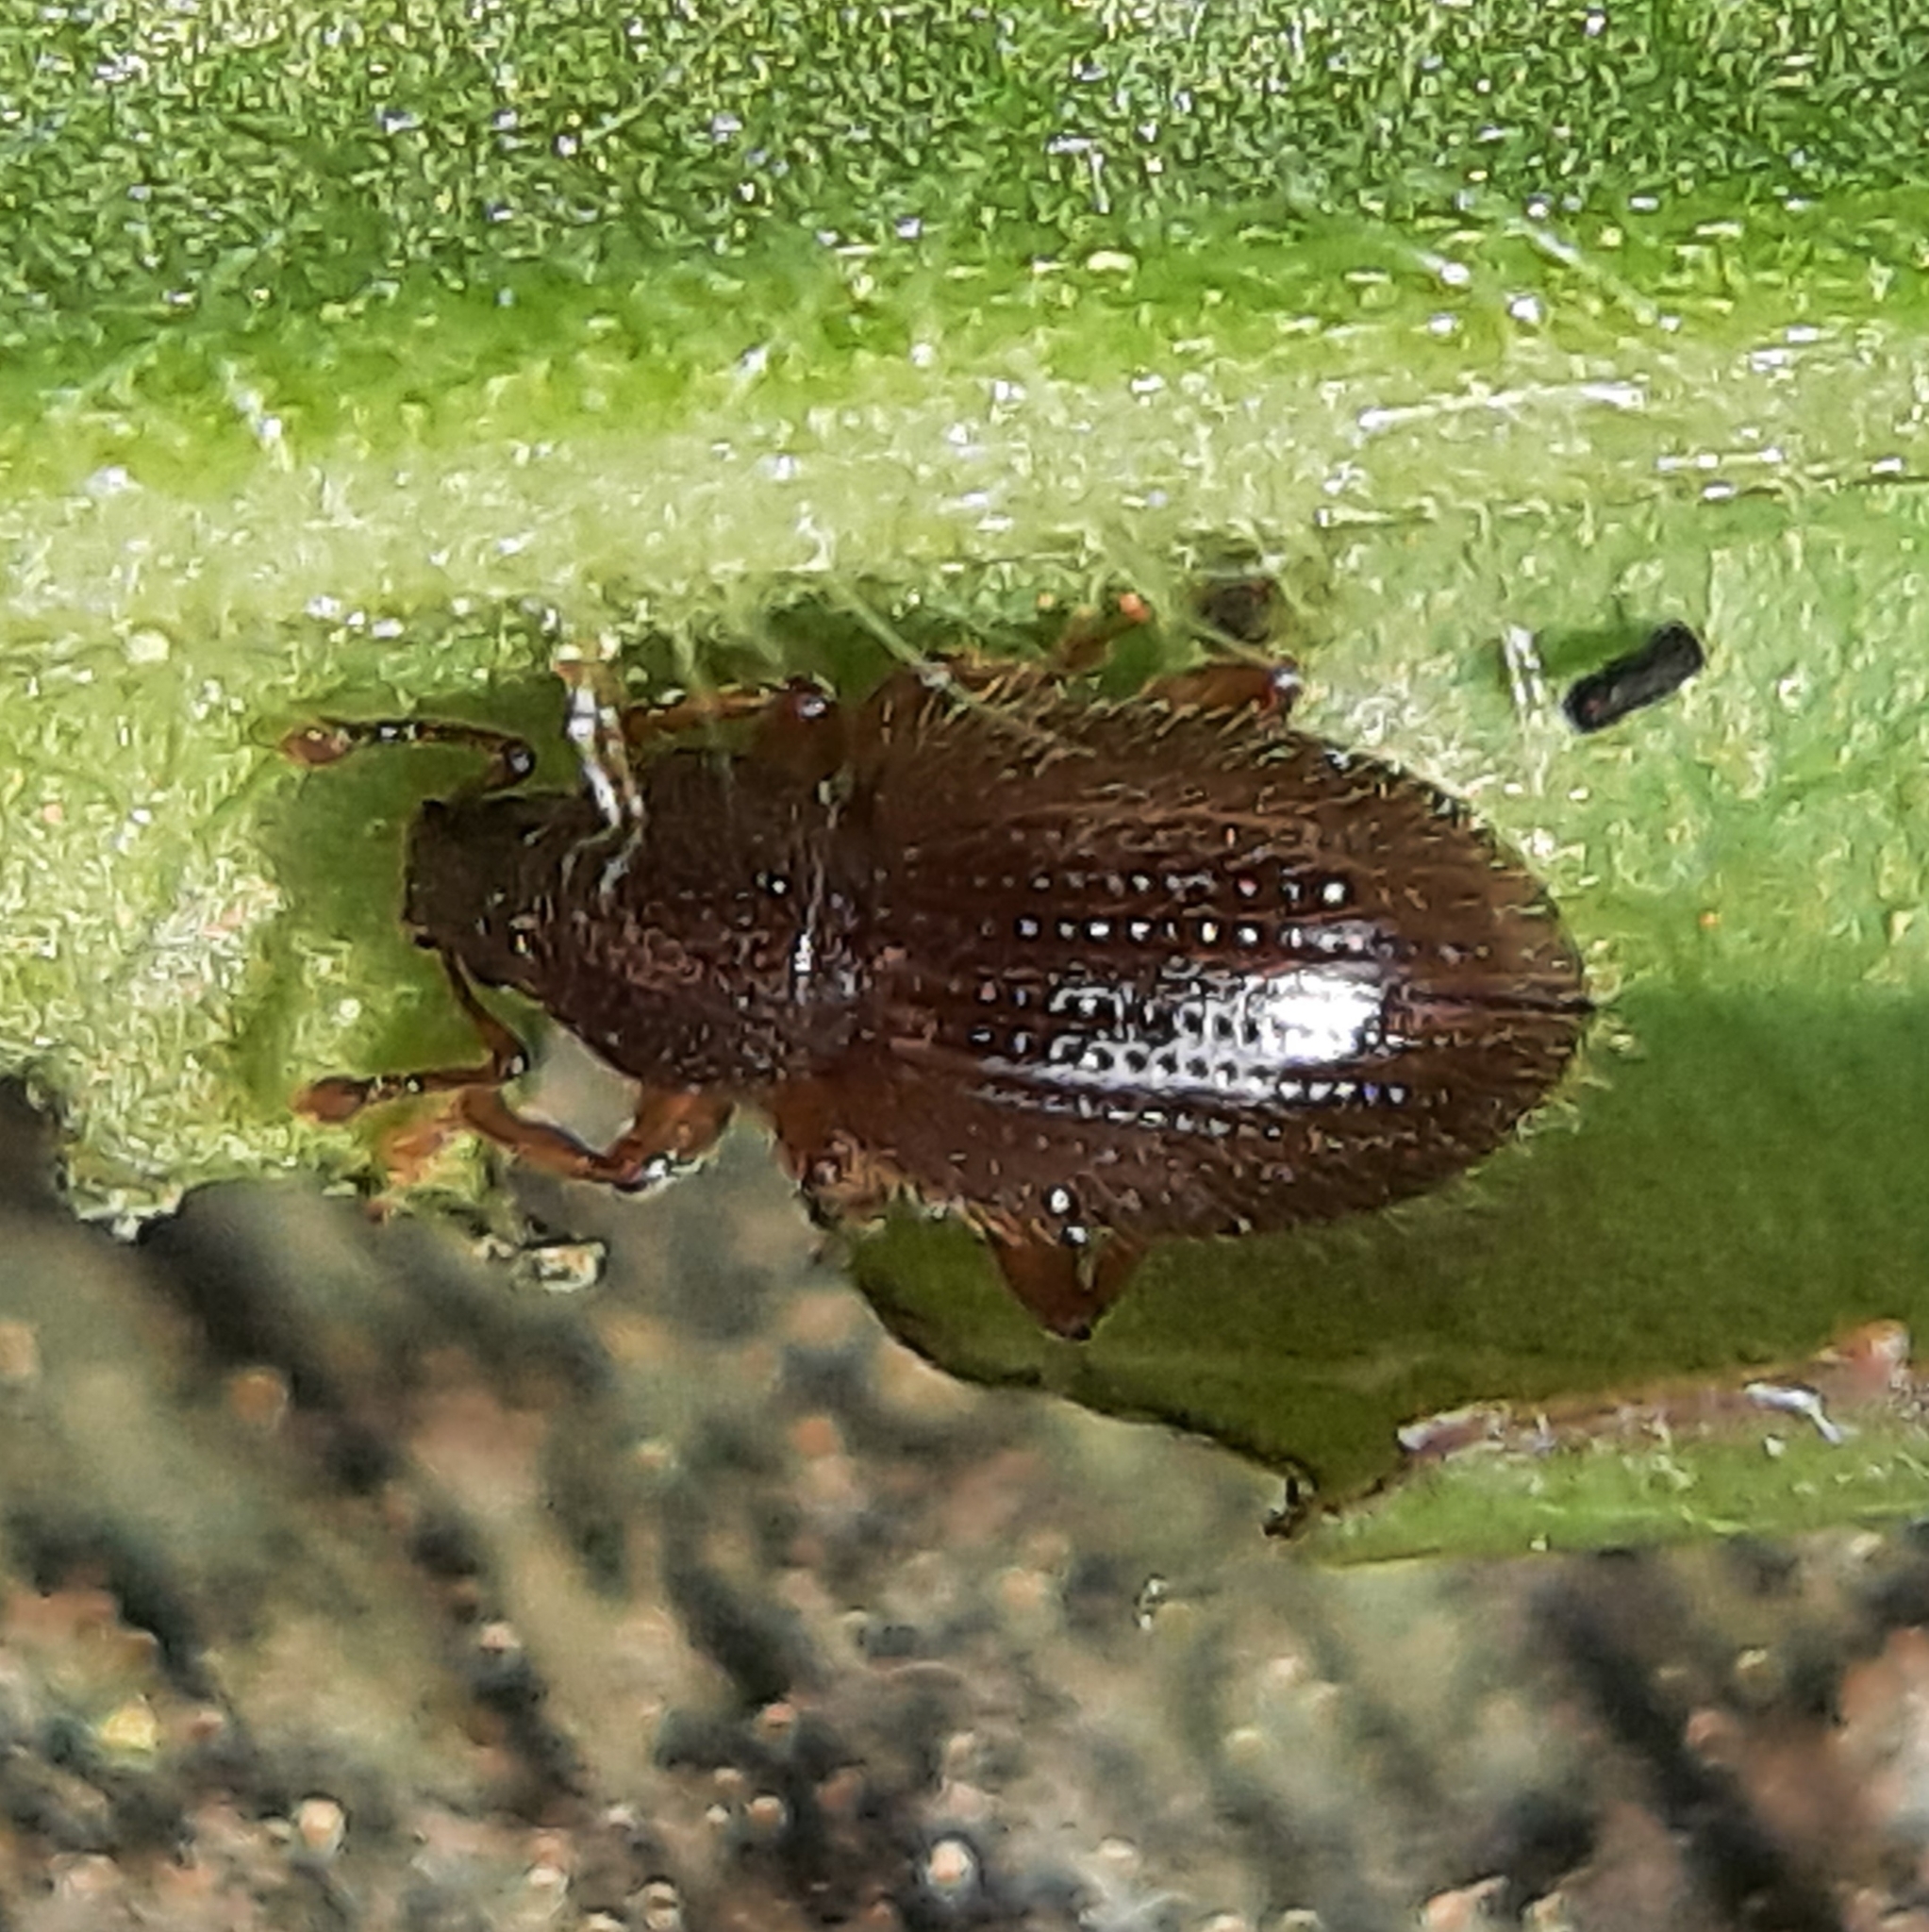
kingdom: Animalia
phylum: Arthropoda
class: Insecta
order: Coleoptera
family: Curculionidae
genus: Exomias
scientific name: Exomias pellucidus
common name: Hairy spider weevil
